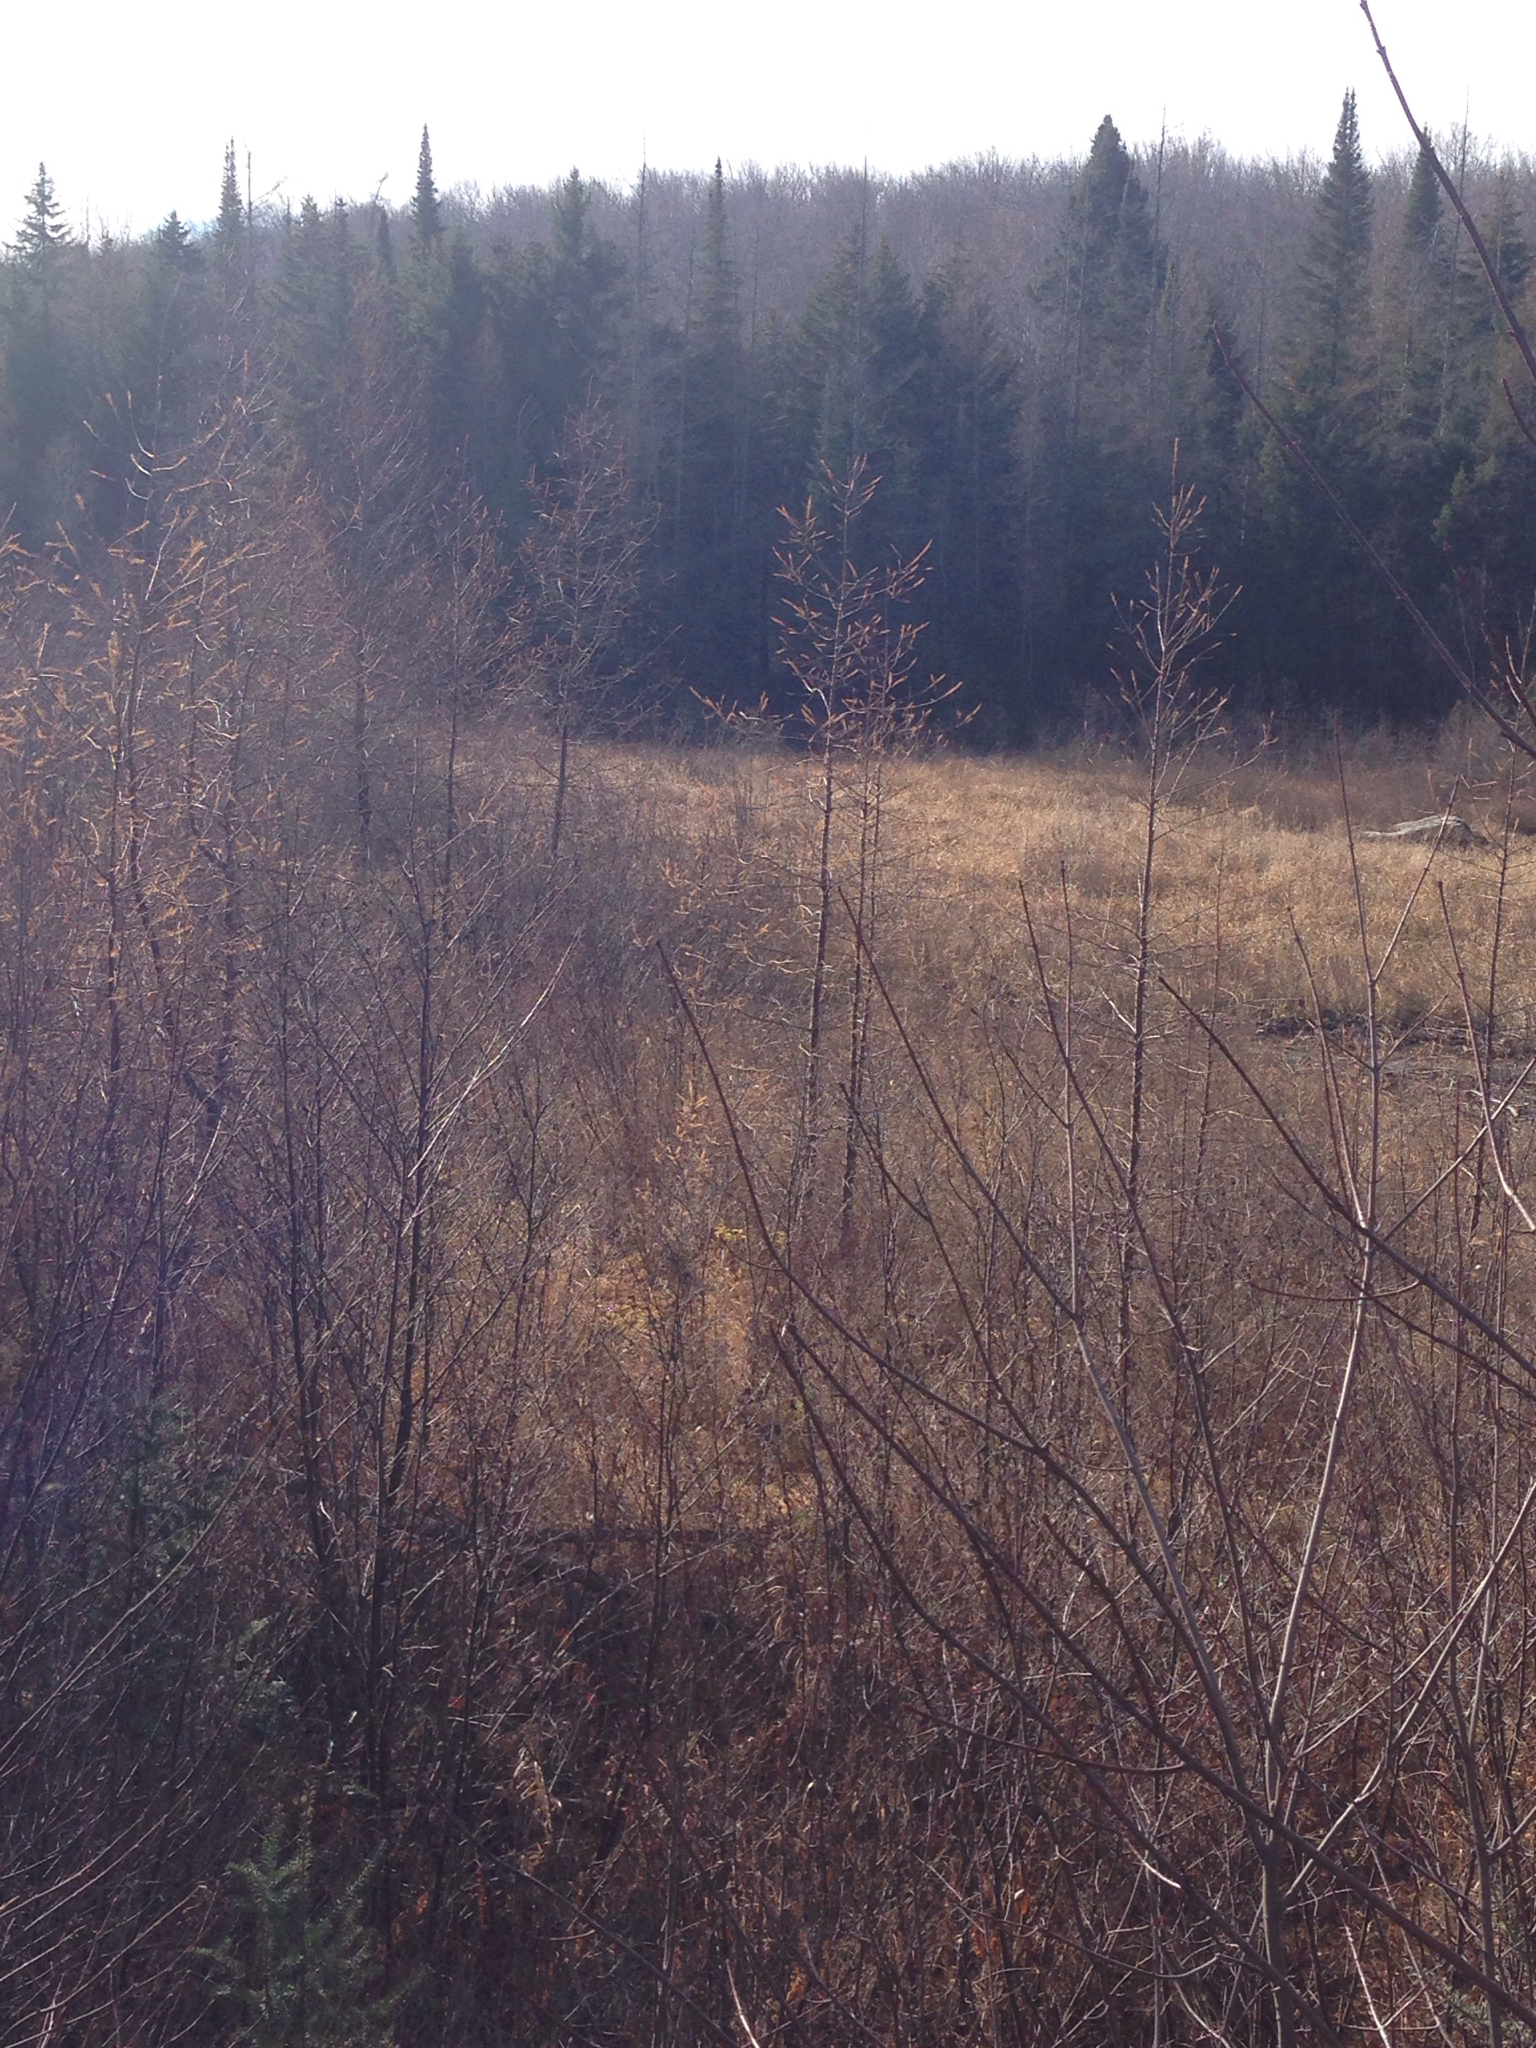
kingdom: Plantae
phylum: Tracheophyta
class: Pinopsida
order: Pinales
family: Pinaceae
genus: Larix
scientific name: Larix laricina
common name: American larch
